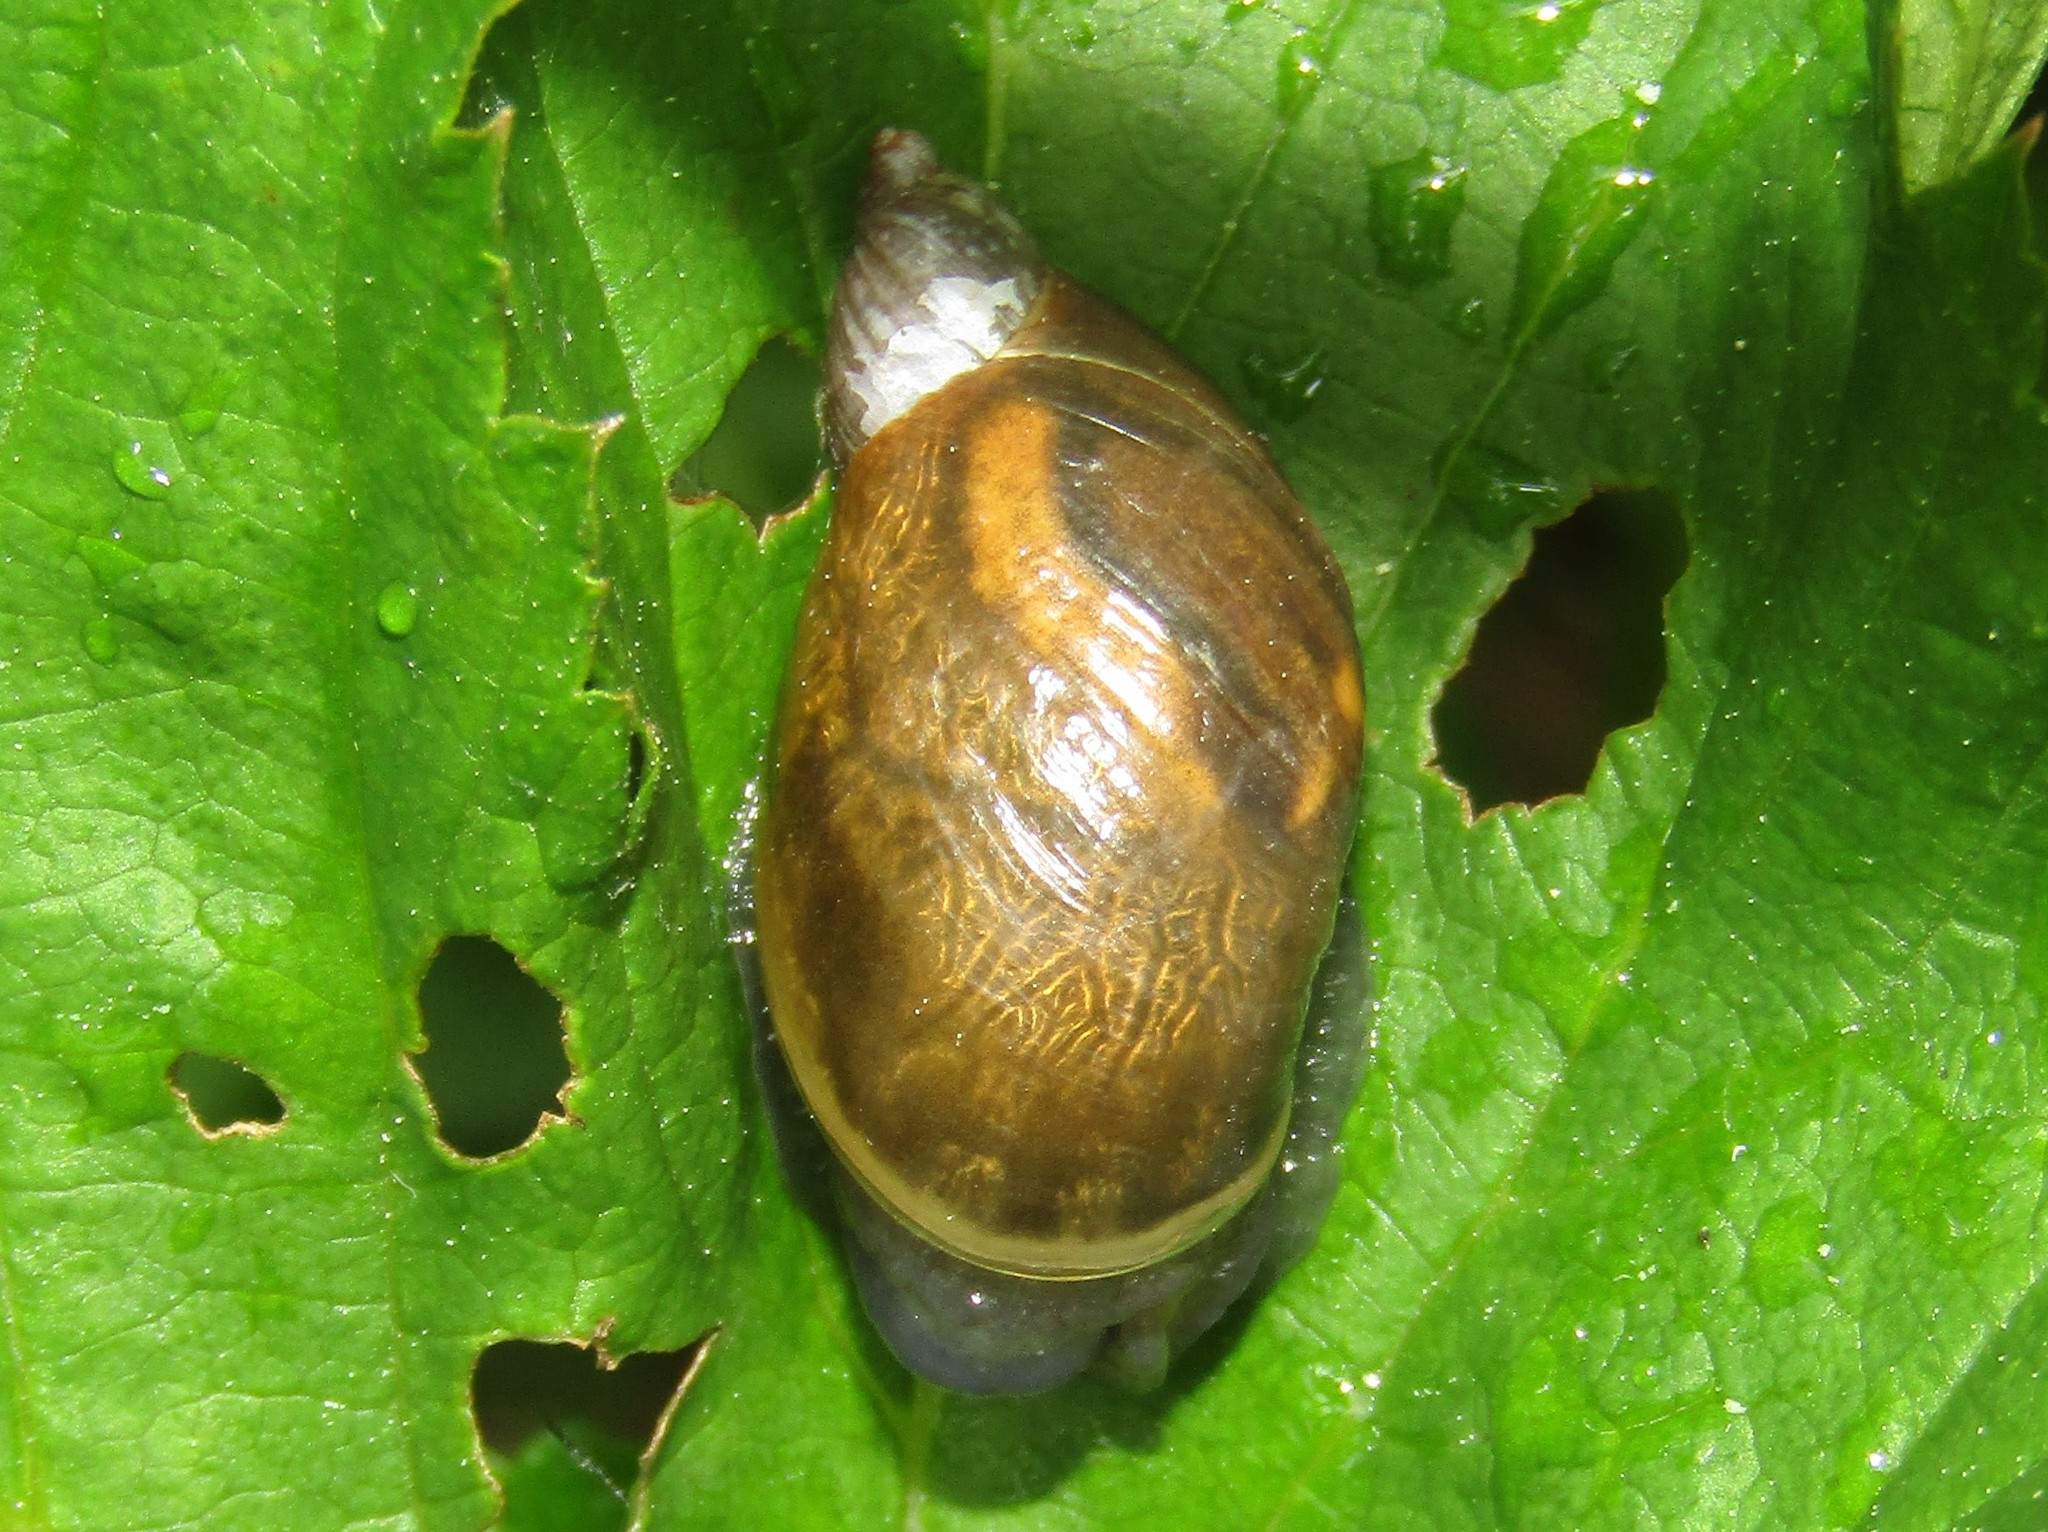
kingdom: Animalia
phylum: Mollusca
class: Gastropoda
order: Stylommatophora
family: Succineidae
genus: Succinea
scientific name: Succinea putris
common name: European ambersnail
